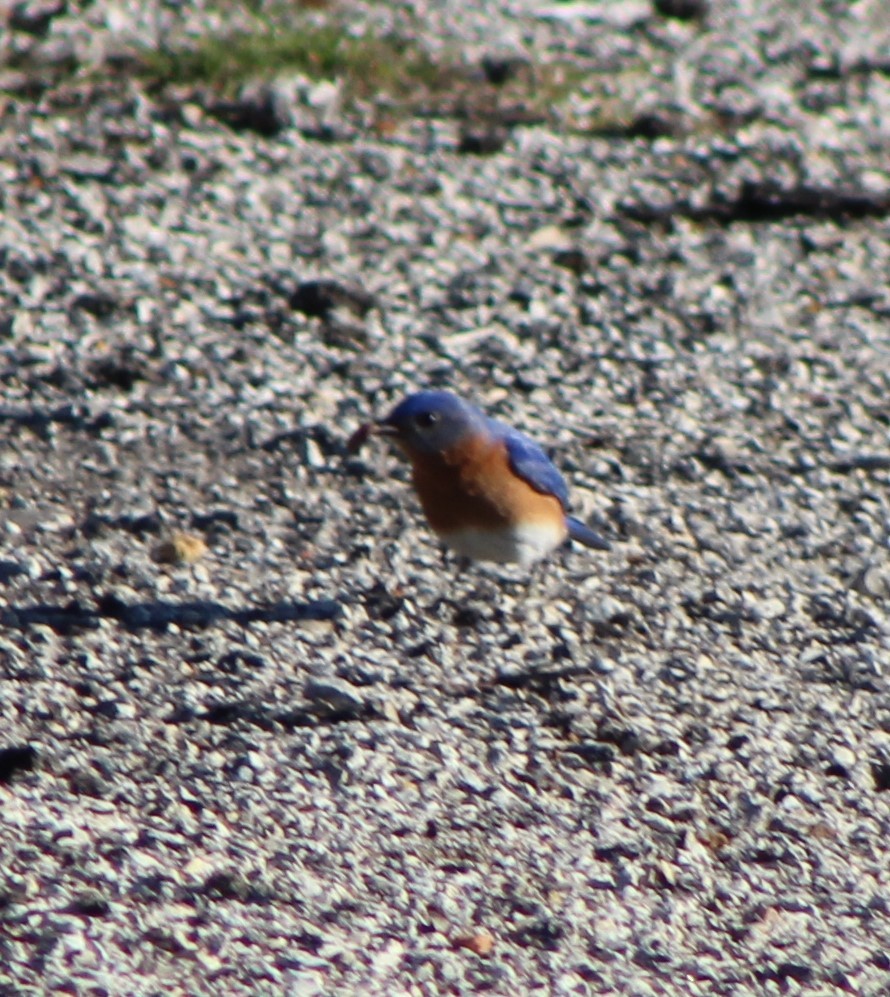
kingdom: Animalia
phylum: Chordata
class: Aves
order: Passeriformes
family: Turdidae
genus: Sialia
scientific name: Sialia sialis
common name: Eastern bluebird
